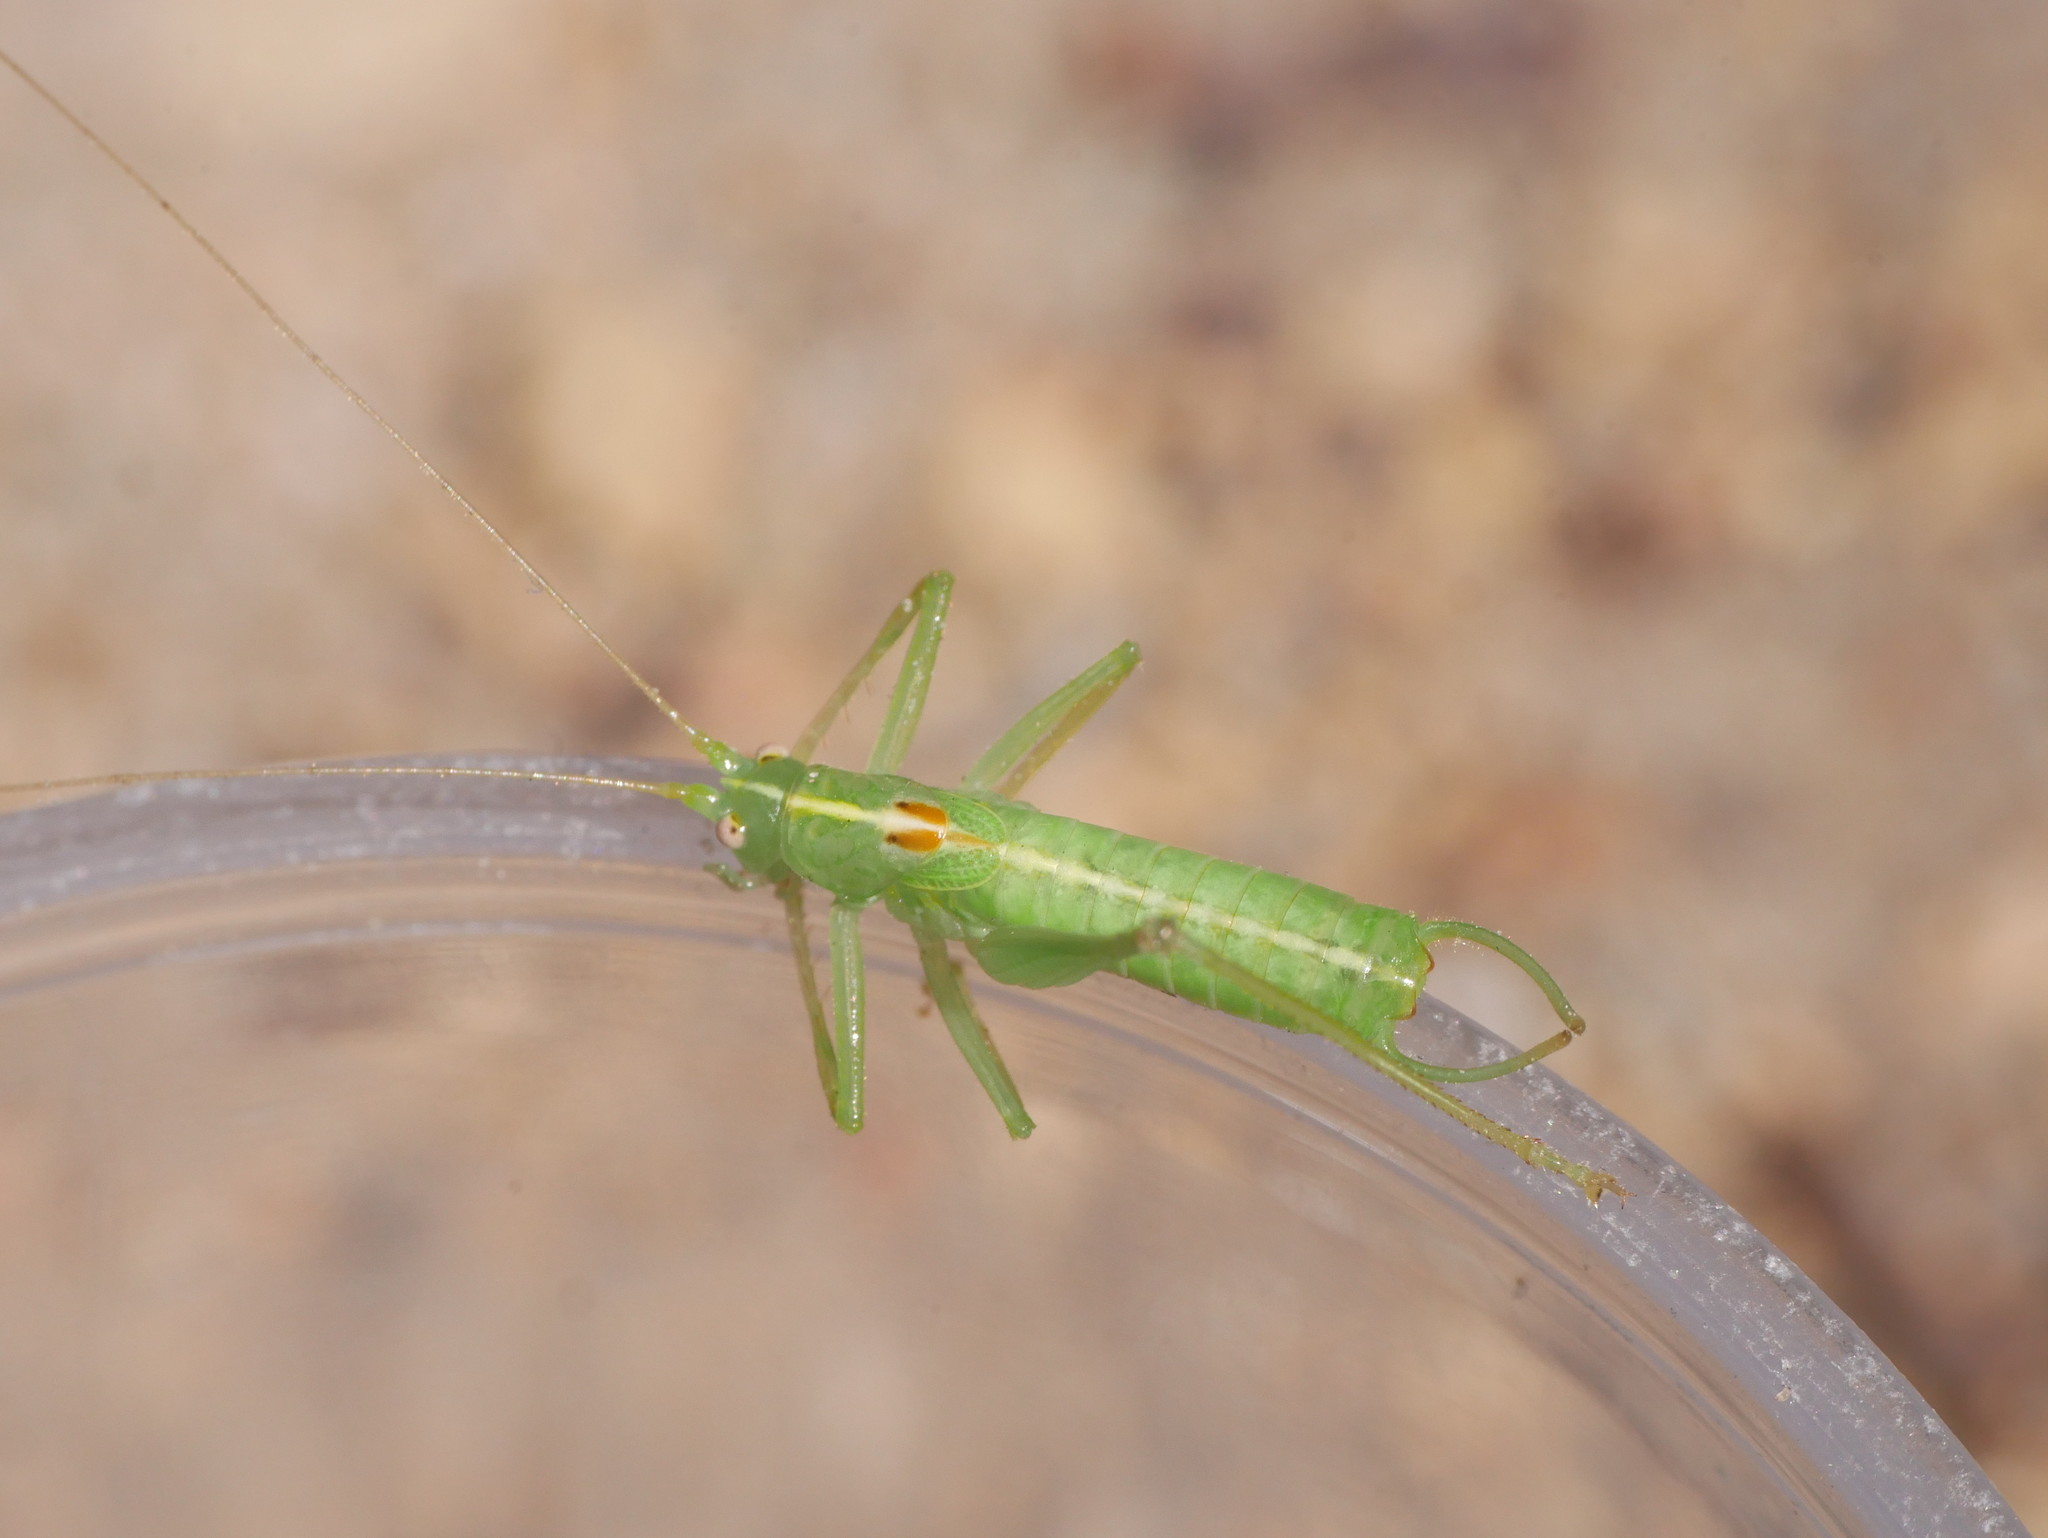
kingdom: Animalia
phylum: Arthropoda
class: Insecta
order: Orthoptera
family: Tettigoniidae
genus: Meconema
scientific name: Meconema meridionale
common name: Southern oak bush-cricket
